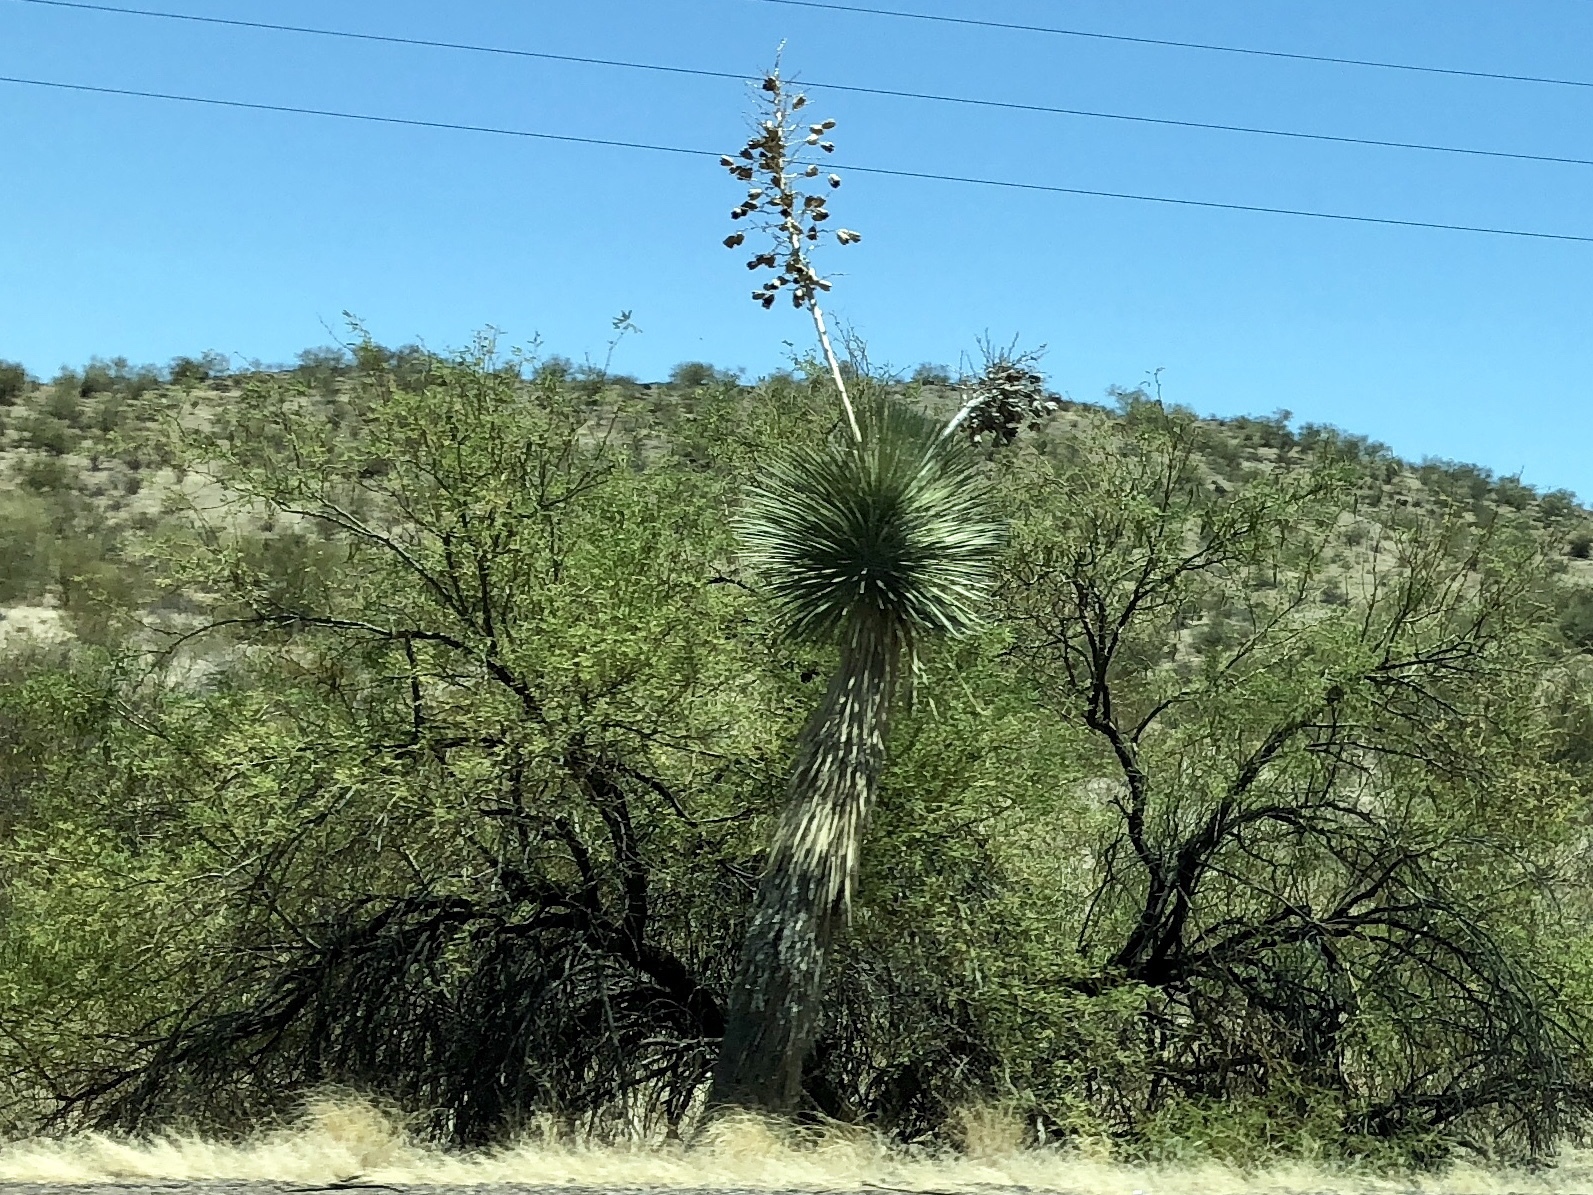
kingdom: Plantae
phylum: Tracheophyta
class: Liliopsida
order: Asparagales
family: Asparagaceae
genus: Yucca
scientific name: Yucca elata
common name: Palmella
